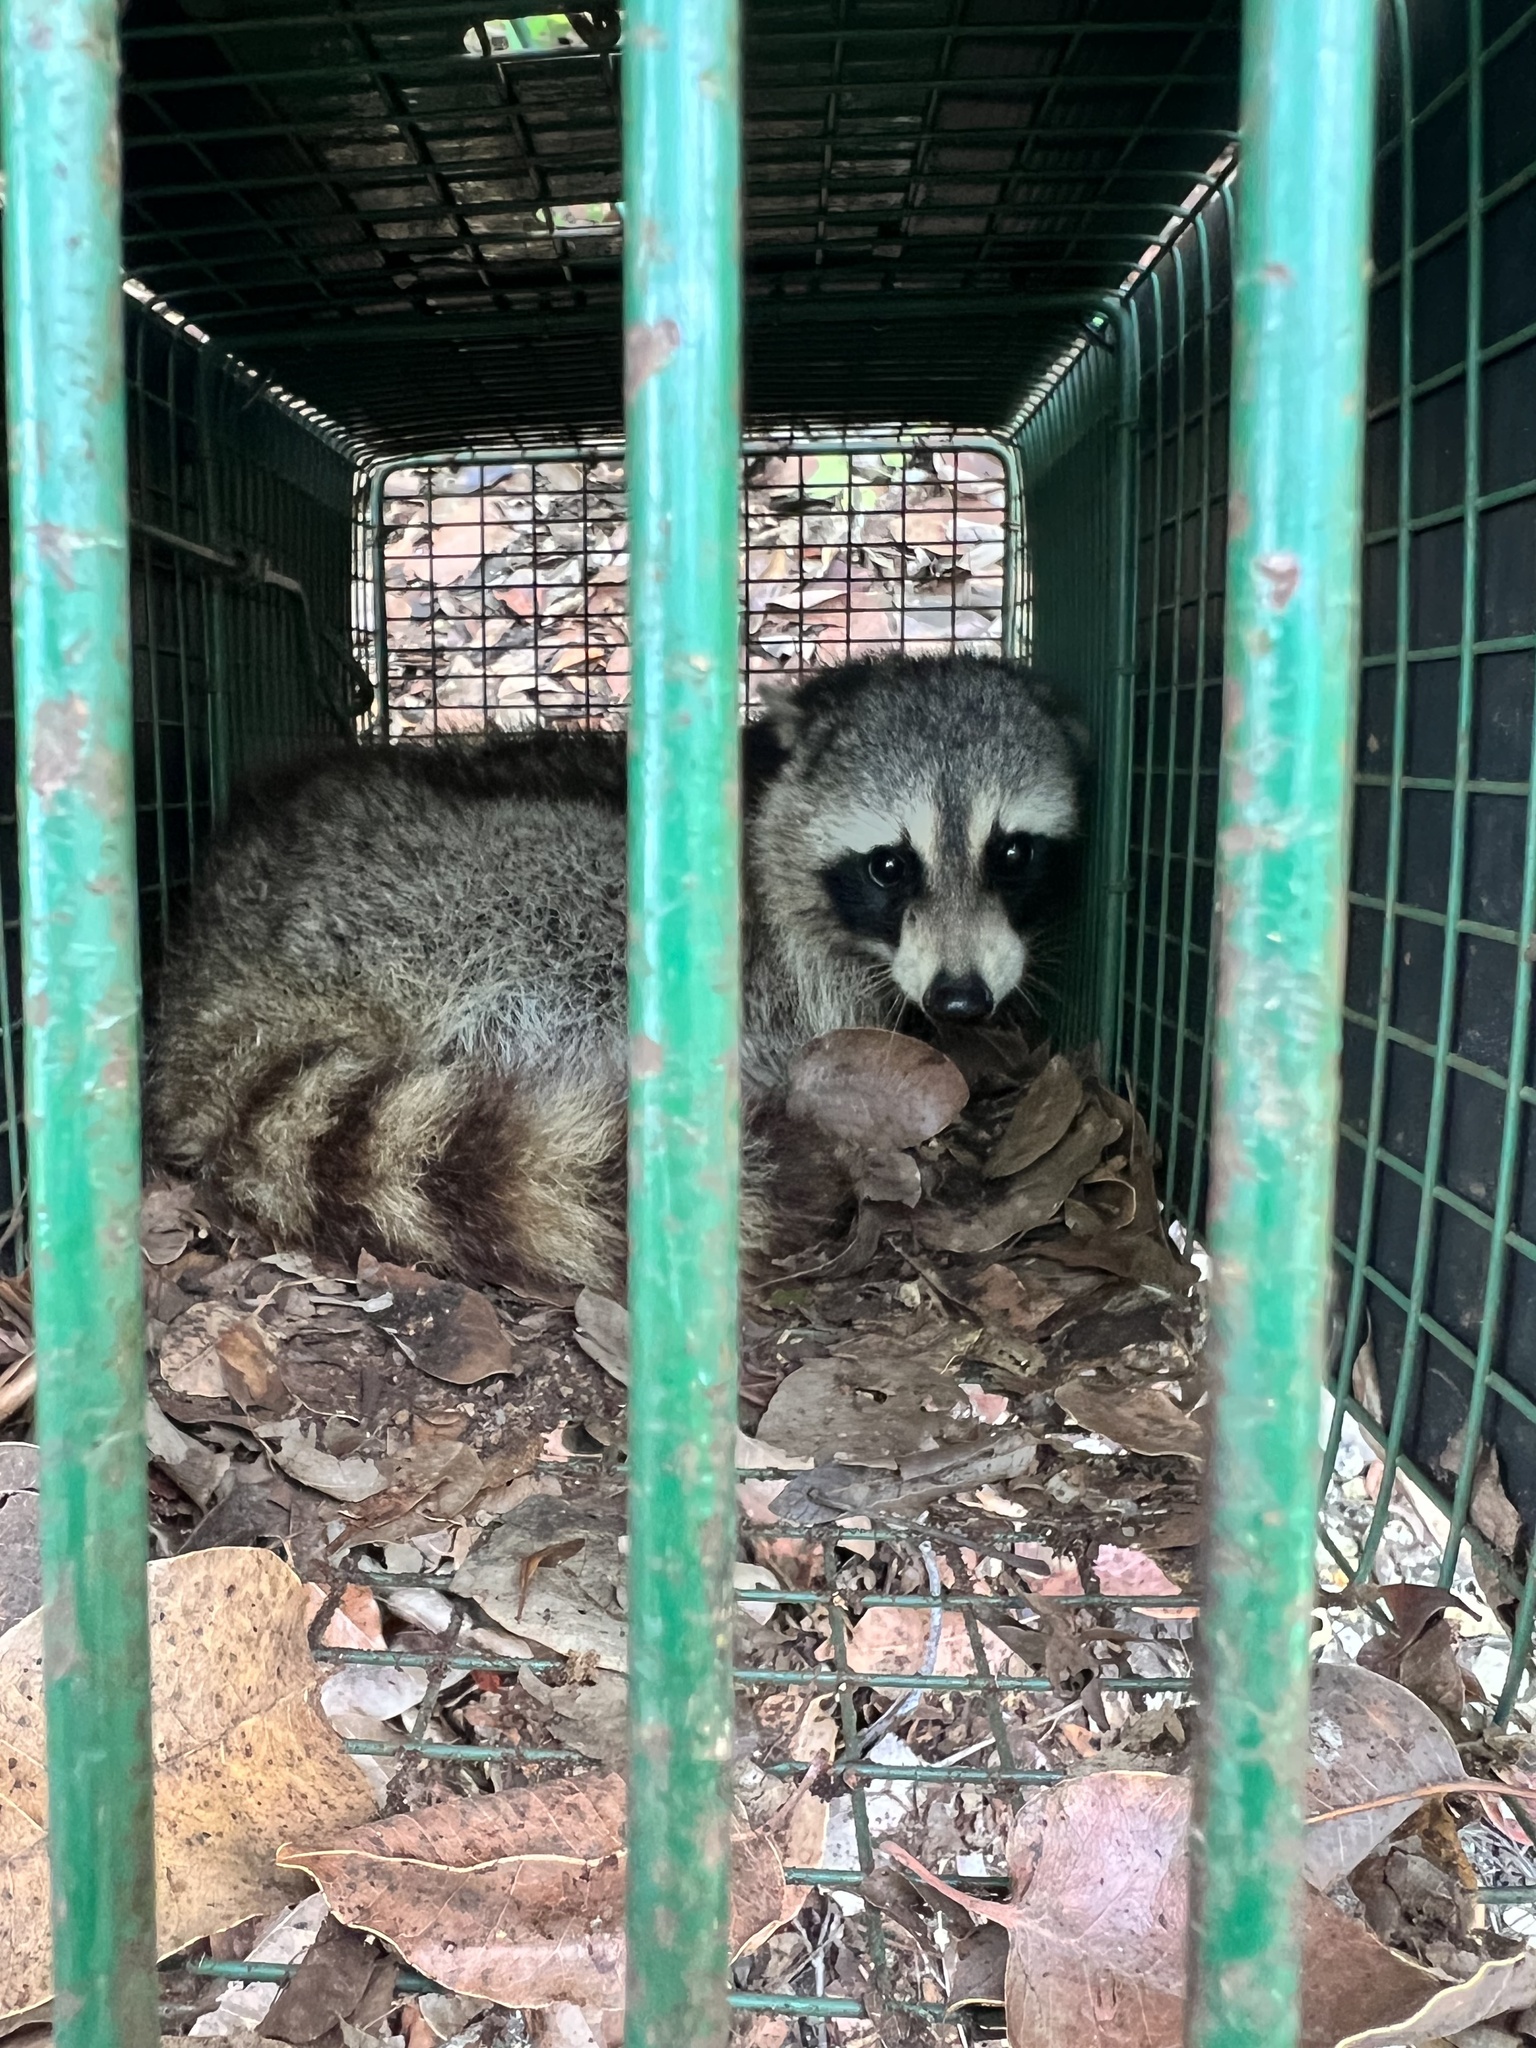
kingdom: Animalia
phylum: Chordata
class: Mammalia
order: Carnivora
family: Procyonidae
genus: Procyon
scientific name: Procyon lotor
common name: Raccoon
